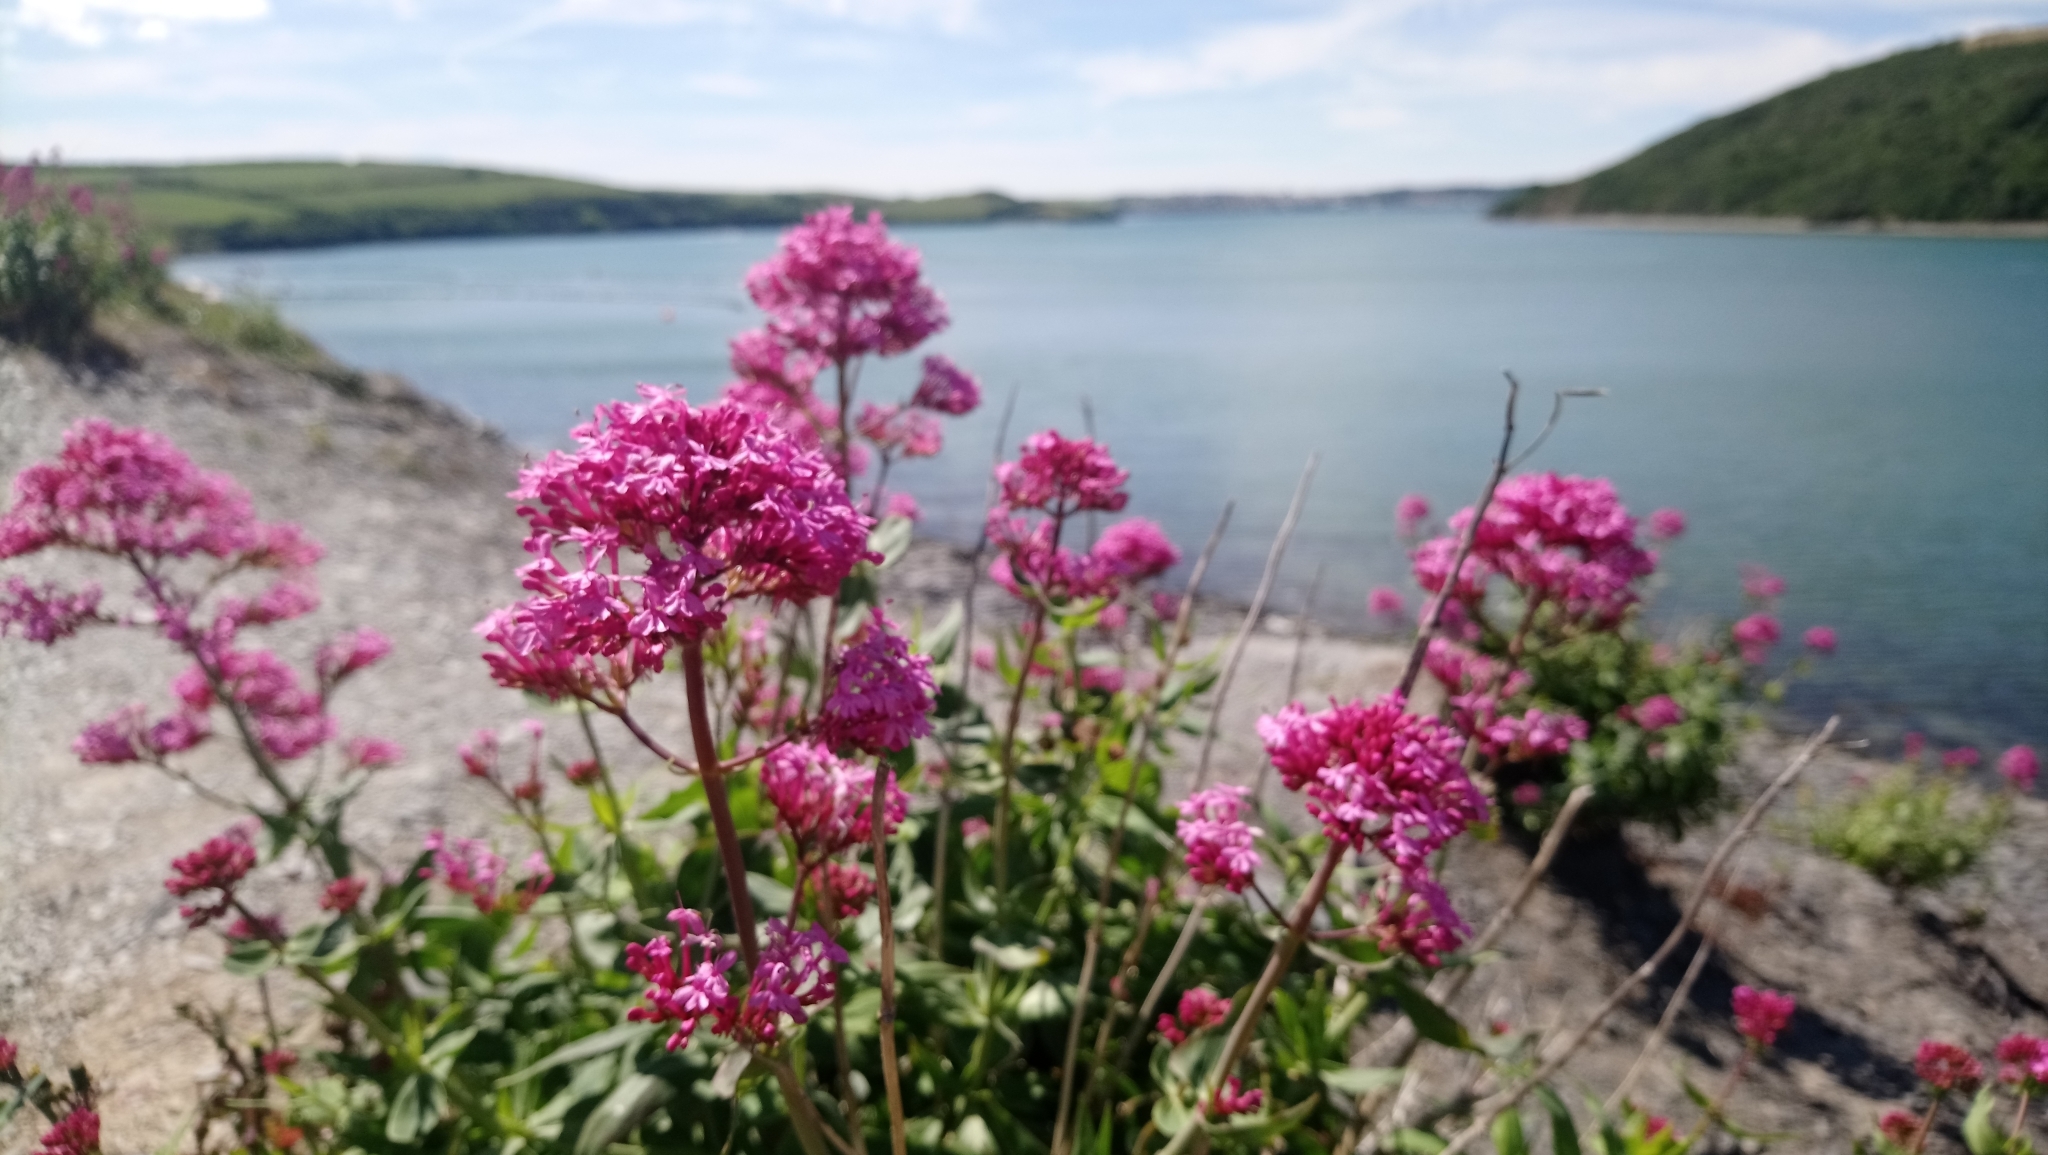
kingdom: Plantae
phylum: Tracheophyta
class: Magnoliopsida
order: Dipsacales
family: Caprifoliaceae
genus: Centranthus
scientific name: Centranthus ruber
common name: Red valerian
